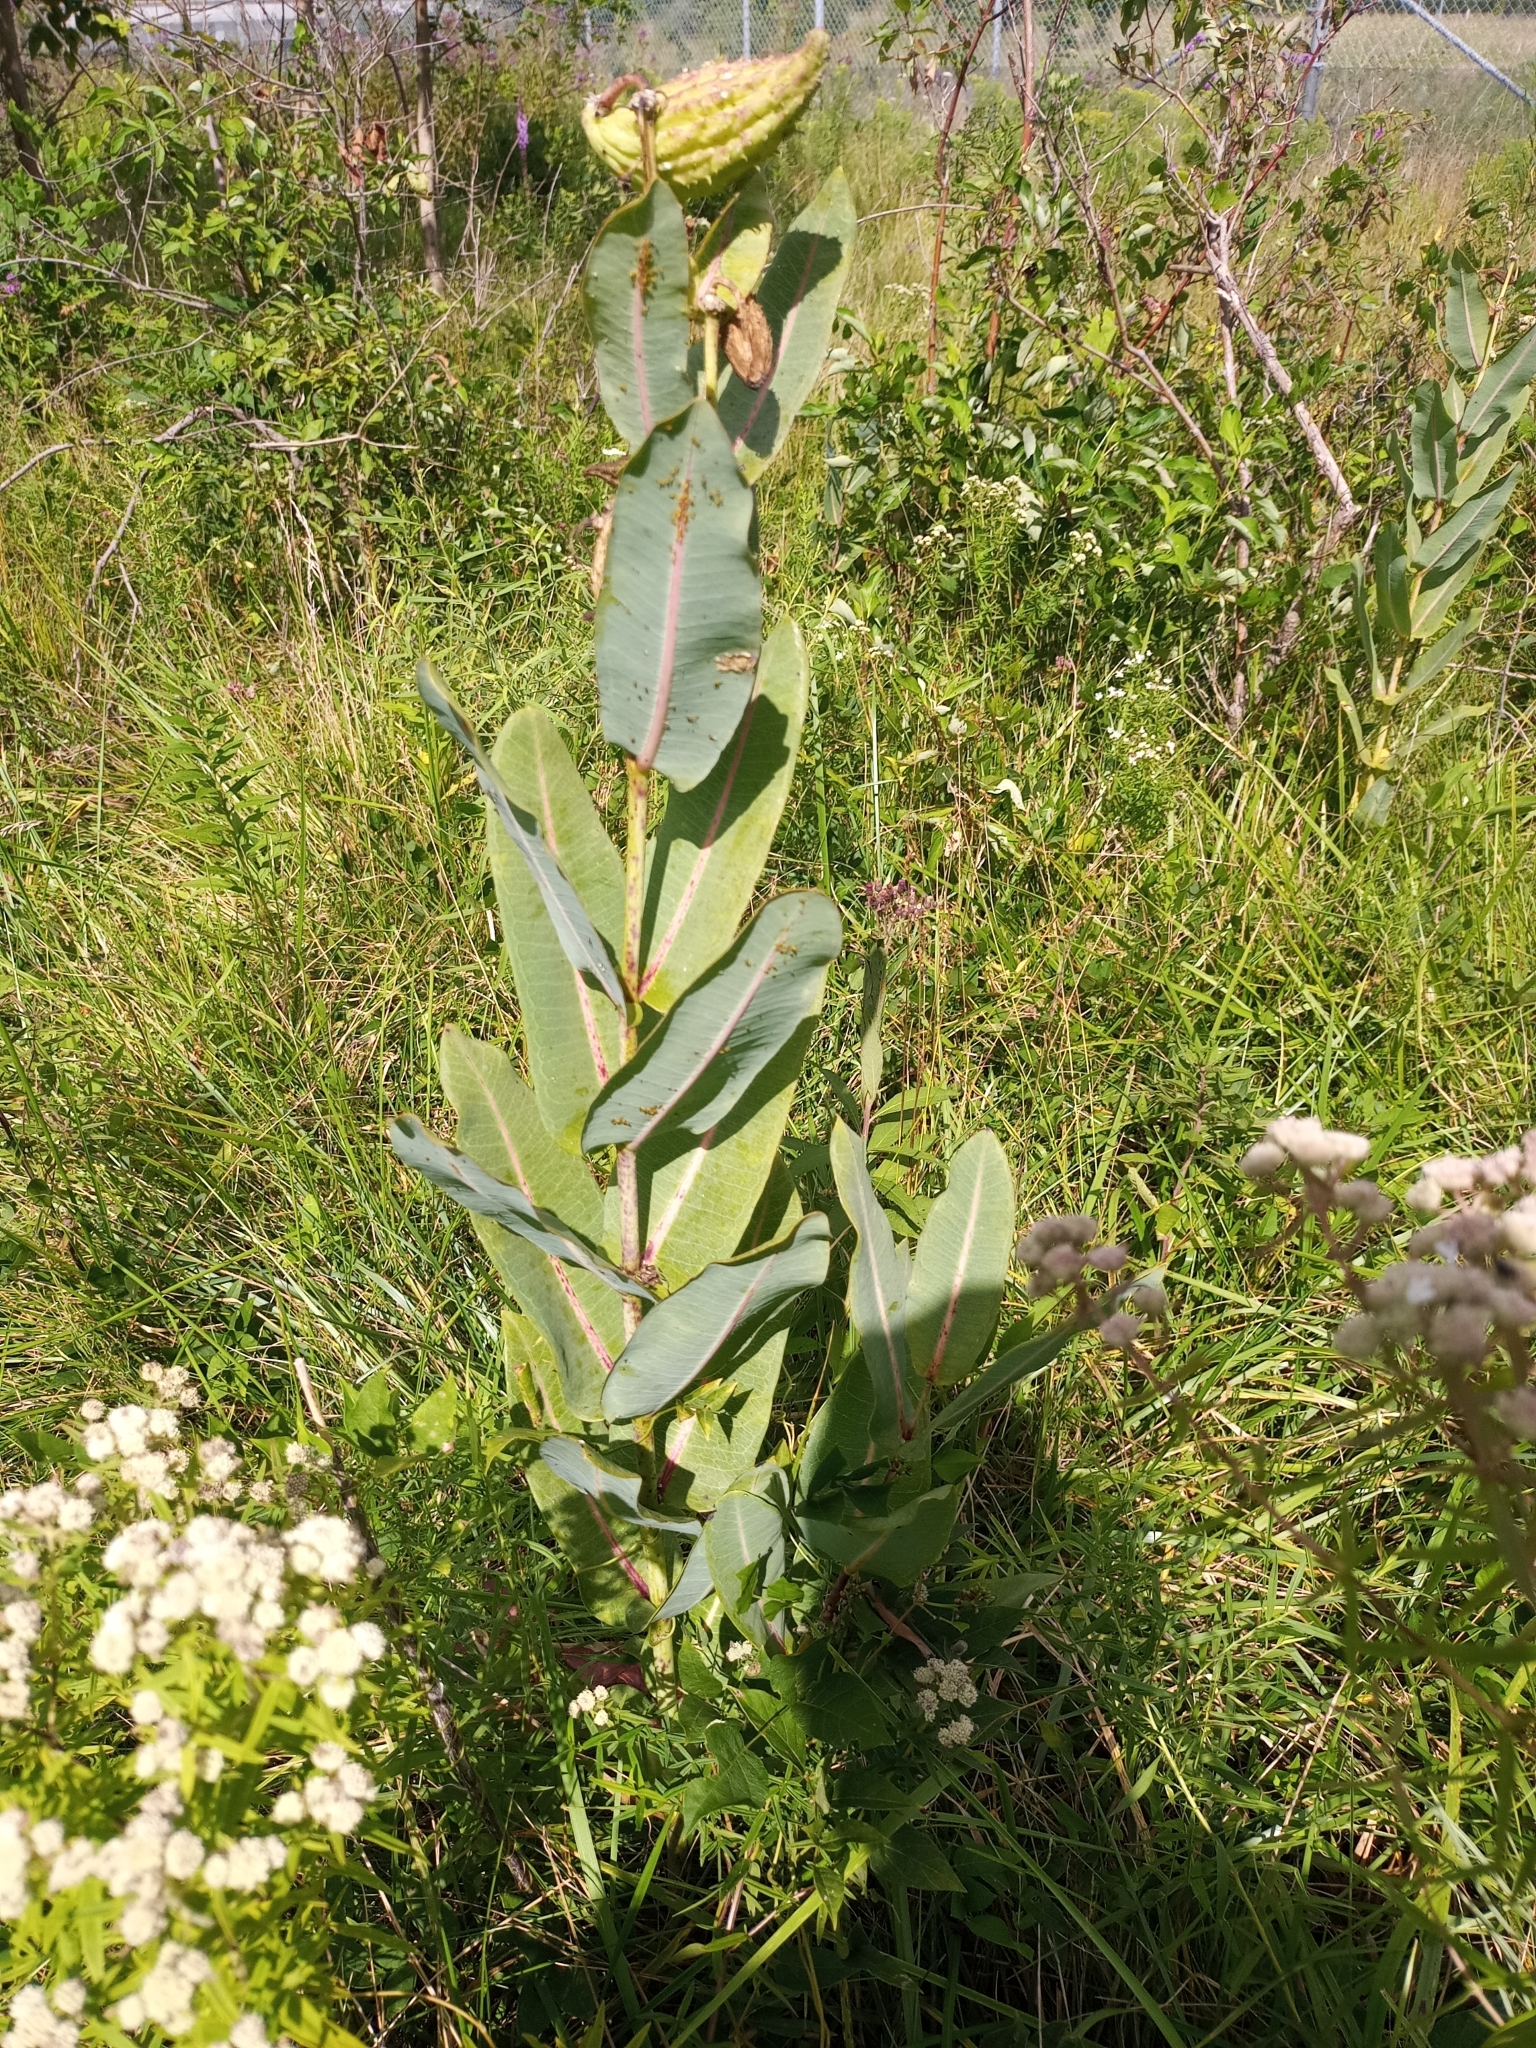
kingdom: Plantae
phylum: Tracheophyta
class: Magnoliopsida
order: Gentianales
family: Apocynaceae
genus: Asclepias
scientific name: Asclepias sullivantii
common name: Prairie milkweed
